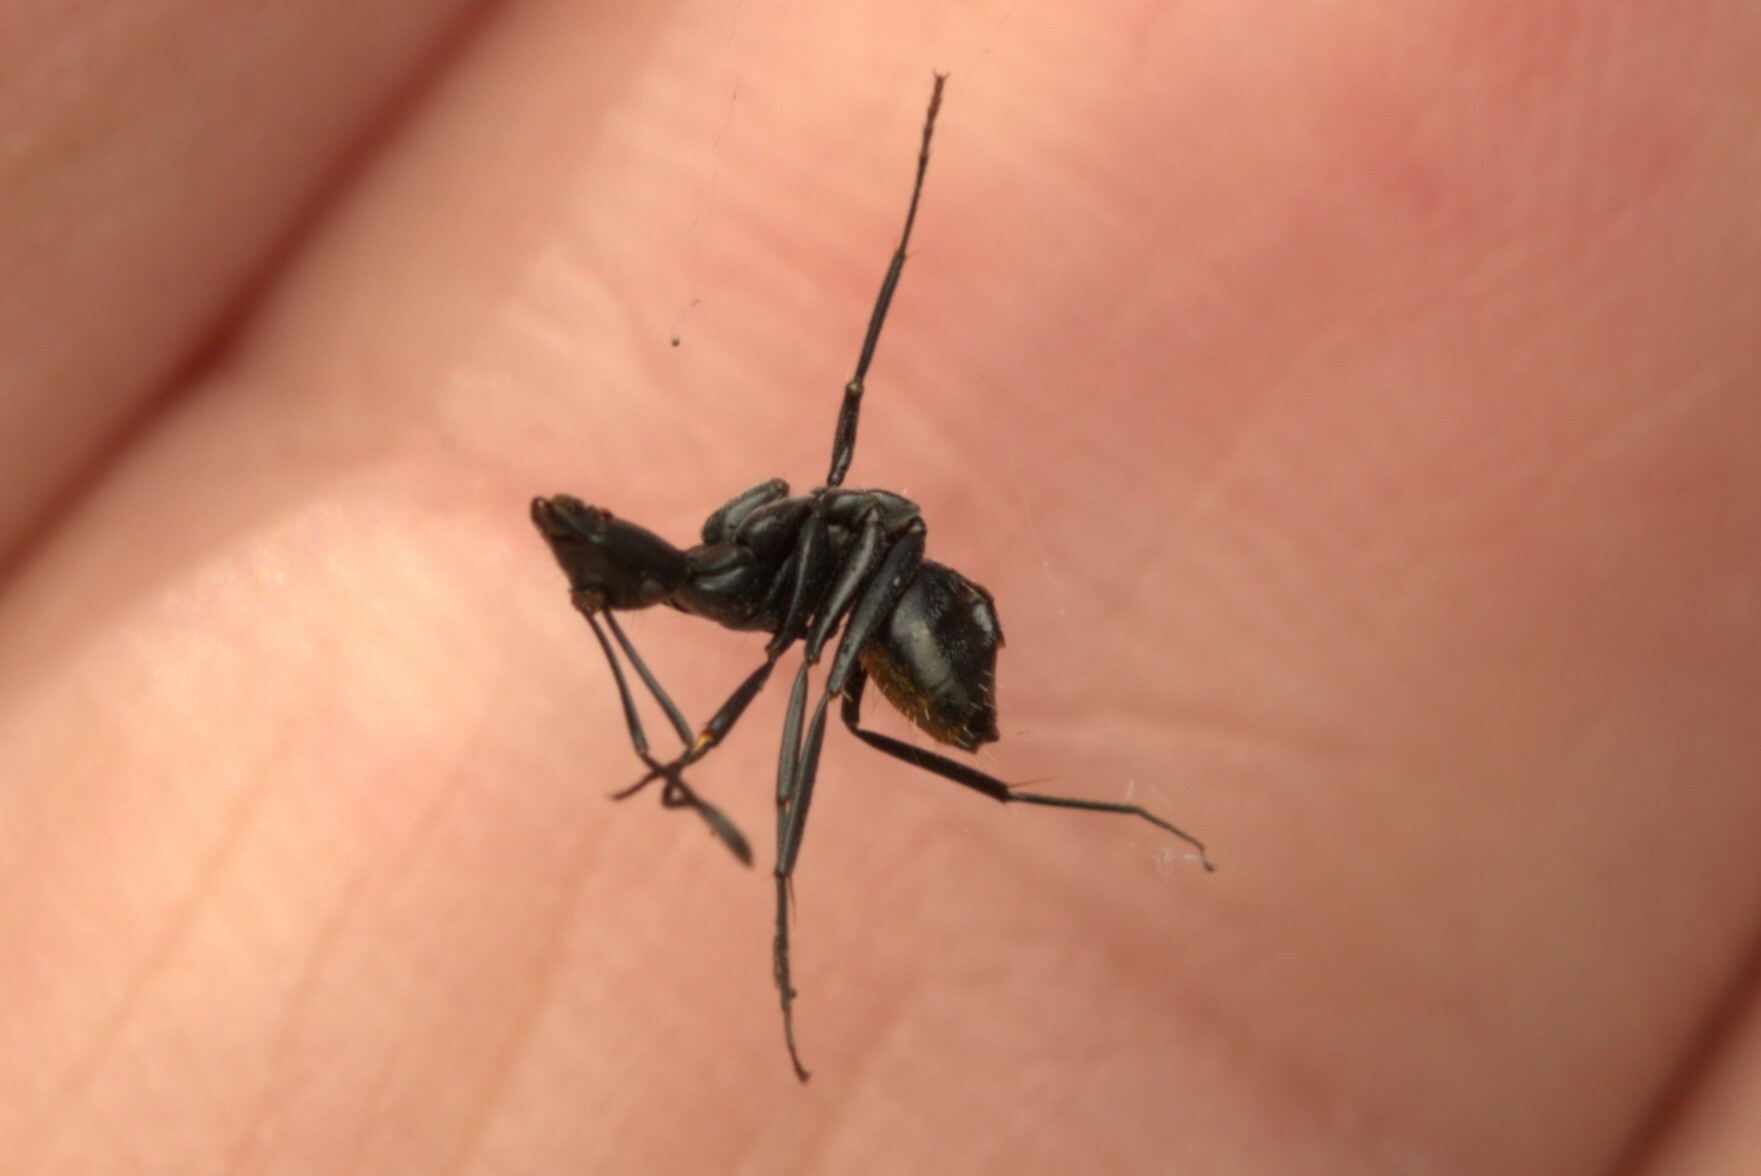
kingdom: Animalia
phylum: Arthropoda
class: Insecta
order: Hymenoptera
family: Formicidae
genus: Camponotus
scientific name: Camponotus aeneopilosus
